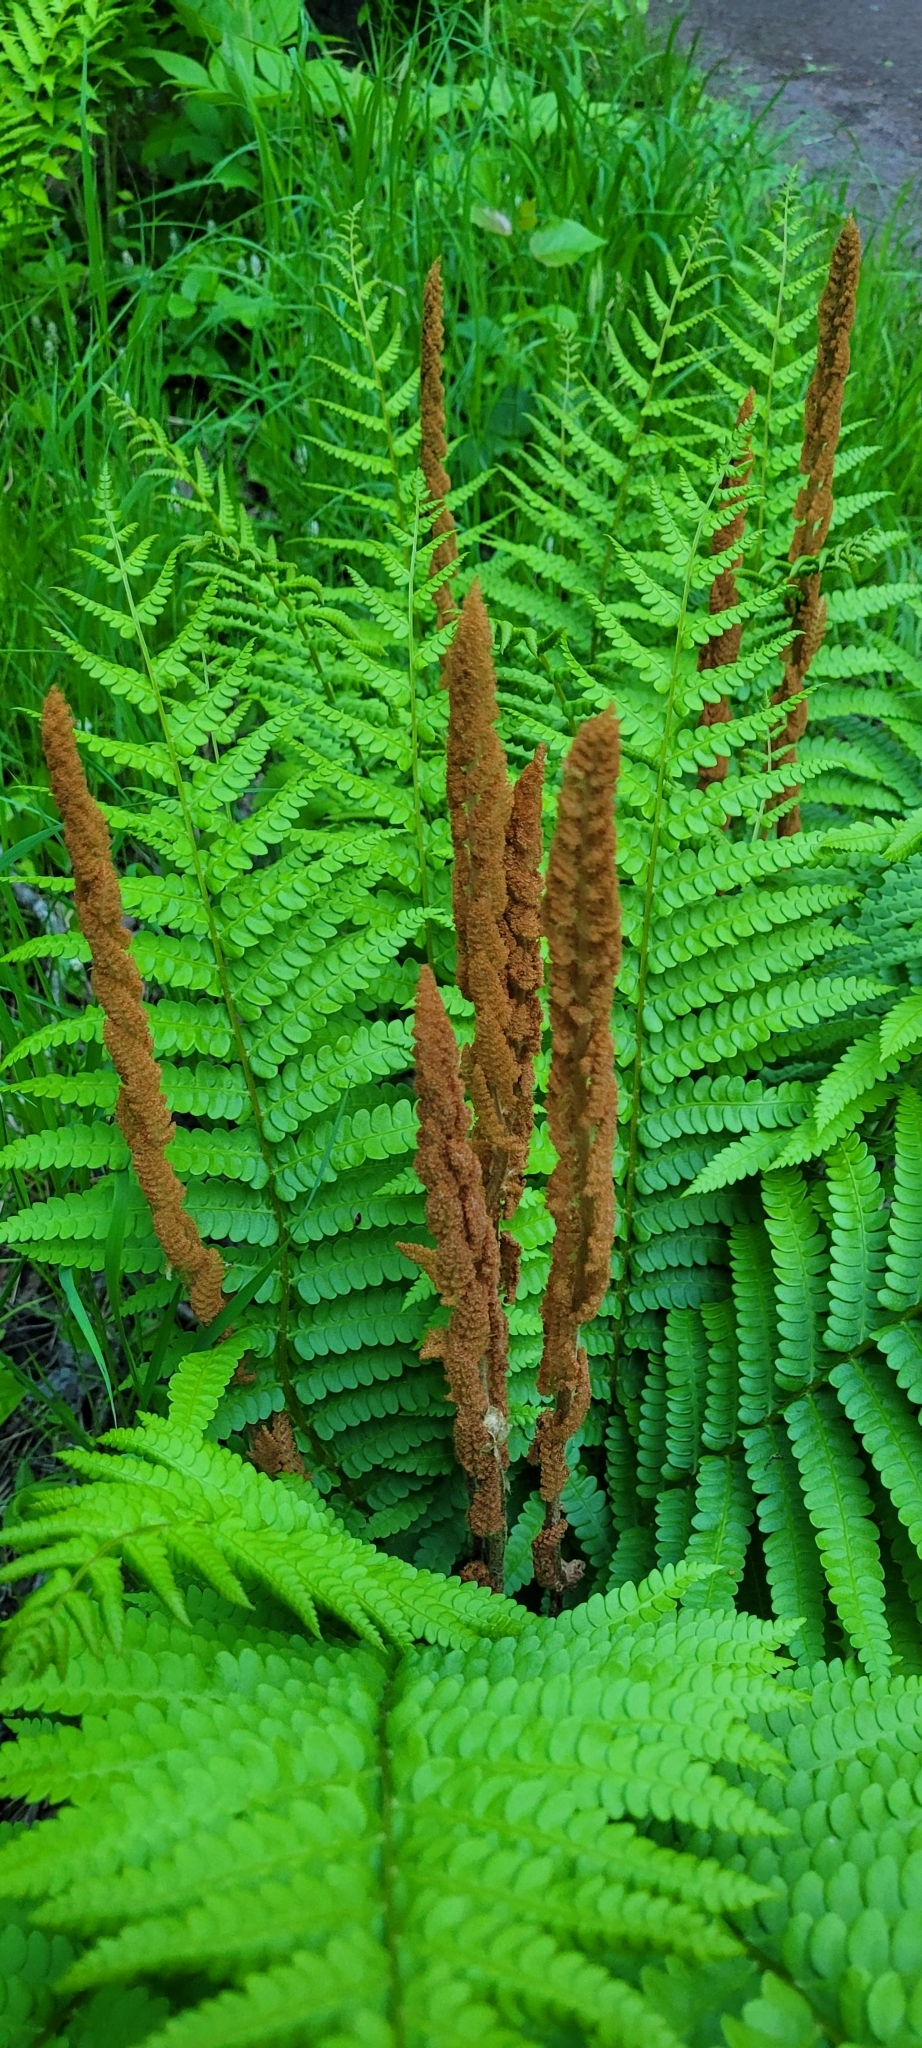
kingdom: Plantae
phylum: Tracheophyta
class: Polypodiopsida
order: Osmundales
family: Osmundaceae
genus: Osmundastrum
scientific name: Osmundastrum cinnamomeum
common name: Cinnamon fern
